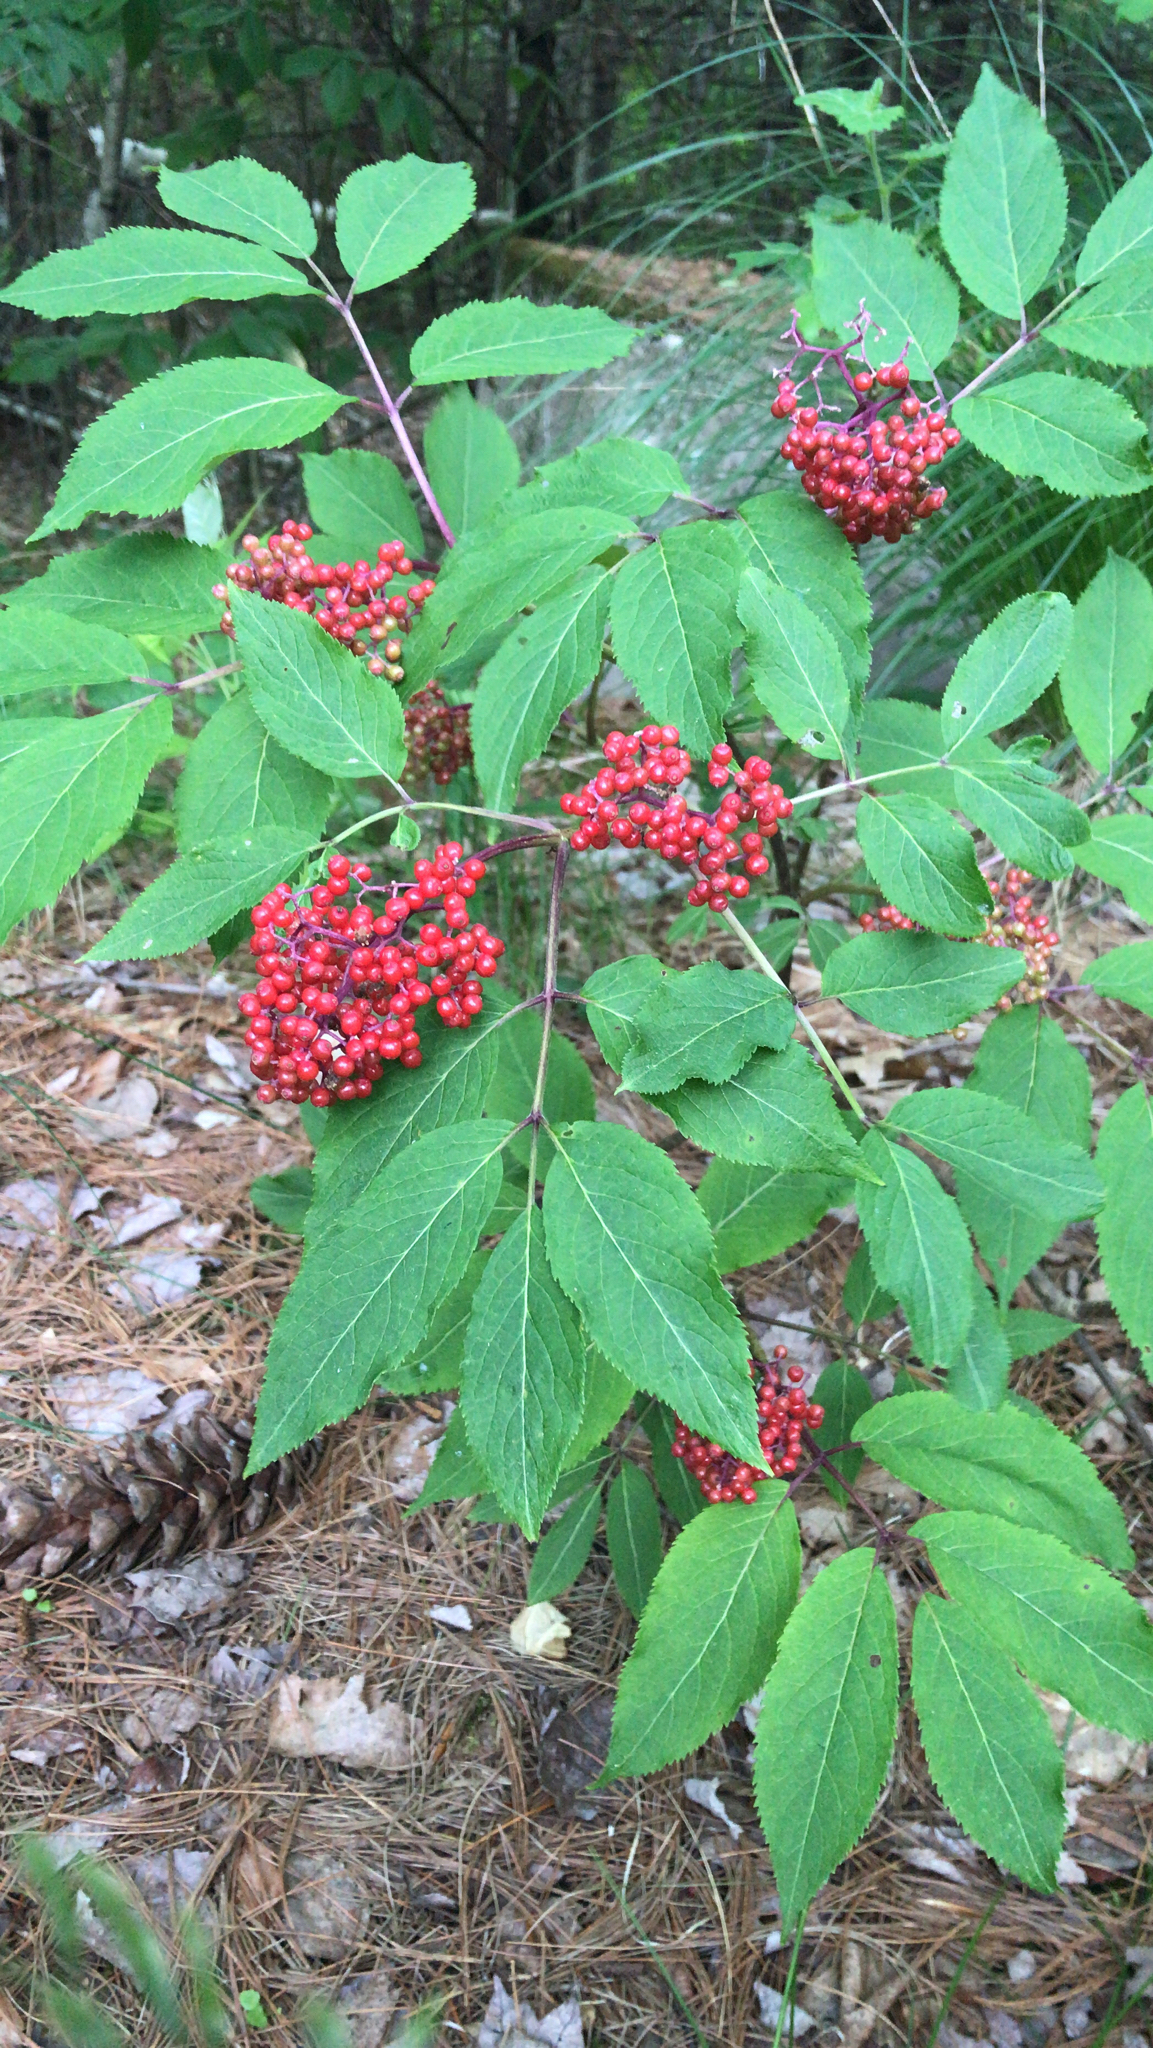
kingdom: Plantae
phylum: Tracheophyta
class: Magnoliopsida
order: Dipsacales
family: Viburnaceae
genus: Sambucus
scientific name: Sambucus racemosa
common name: Red-berried elder
